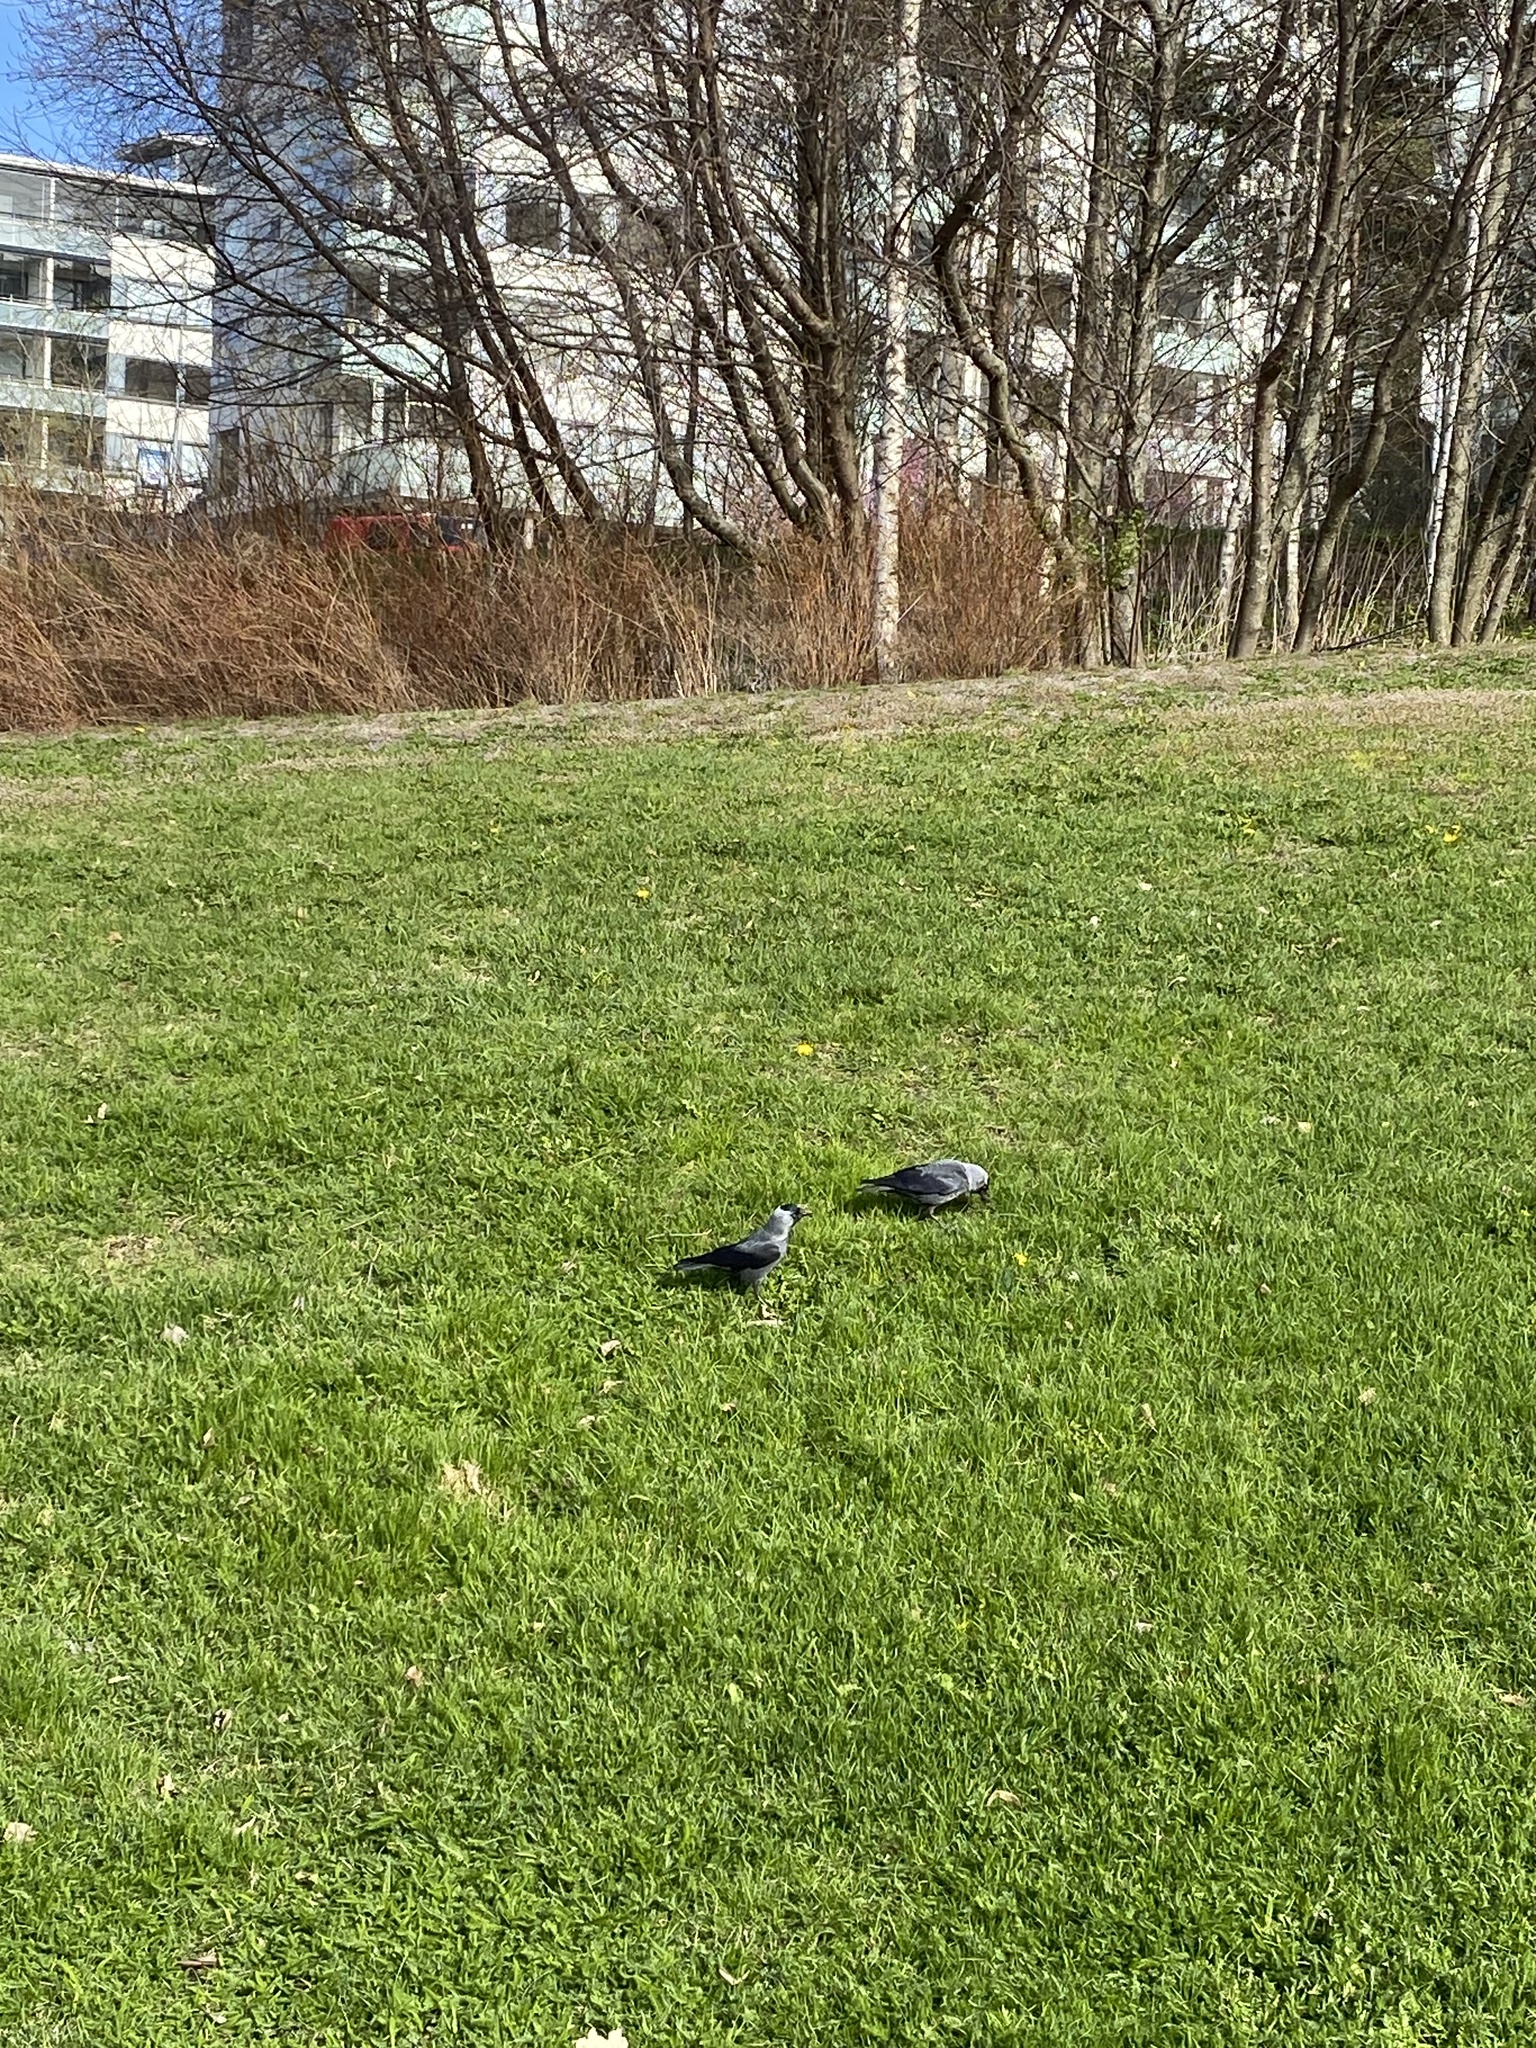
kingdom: Animalia
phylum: Chordata
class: Aves
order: Passeriformes
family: Corvidae
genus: Coloeus
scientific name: Coloeus monedula
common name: Western jackdaw
